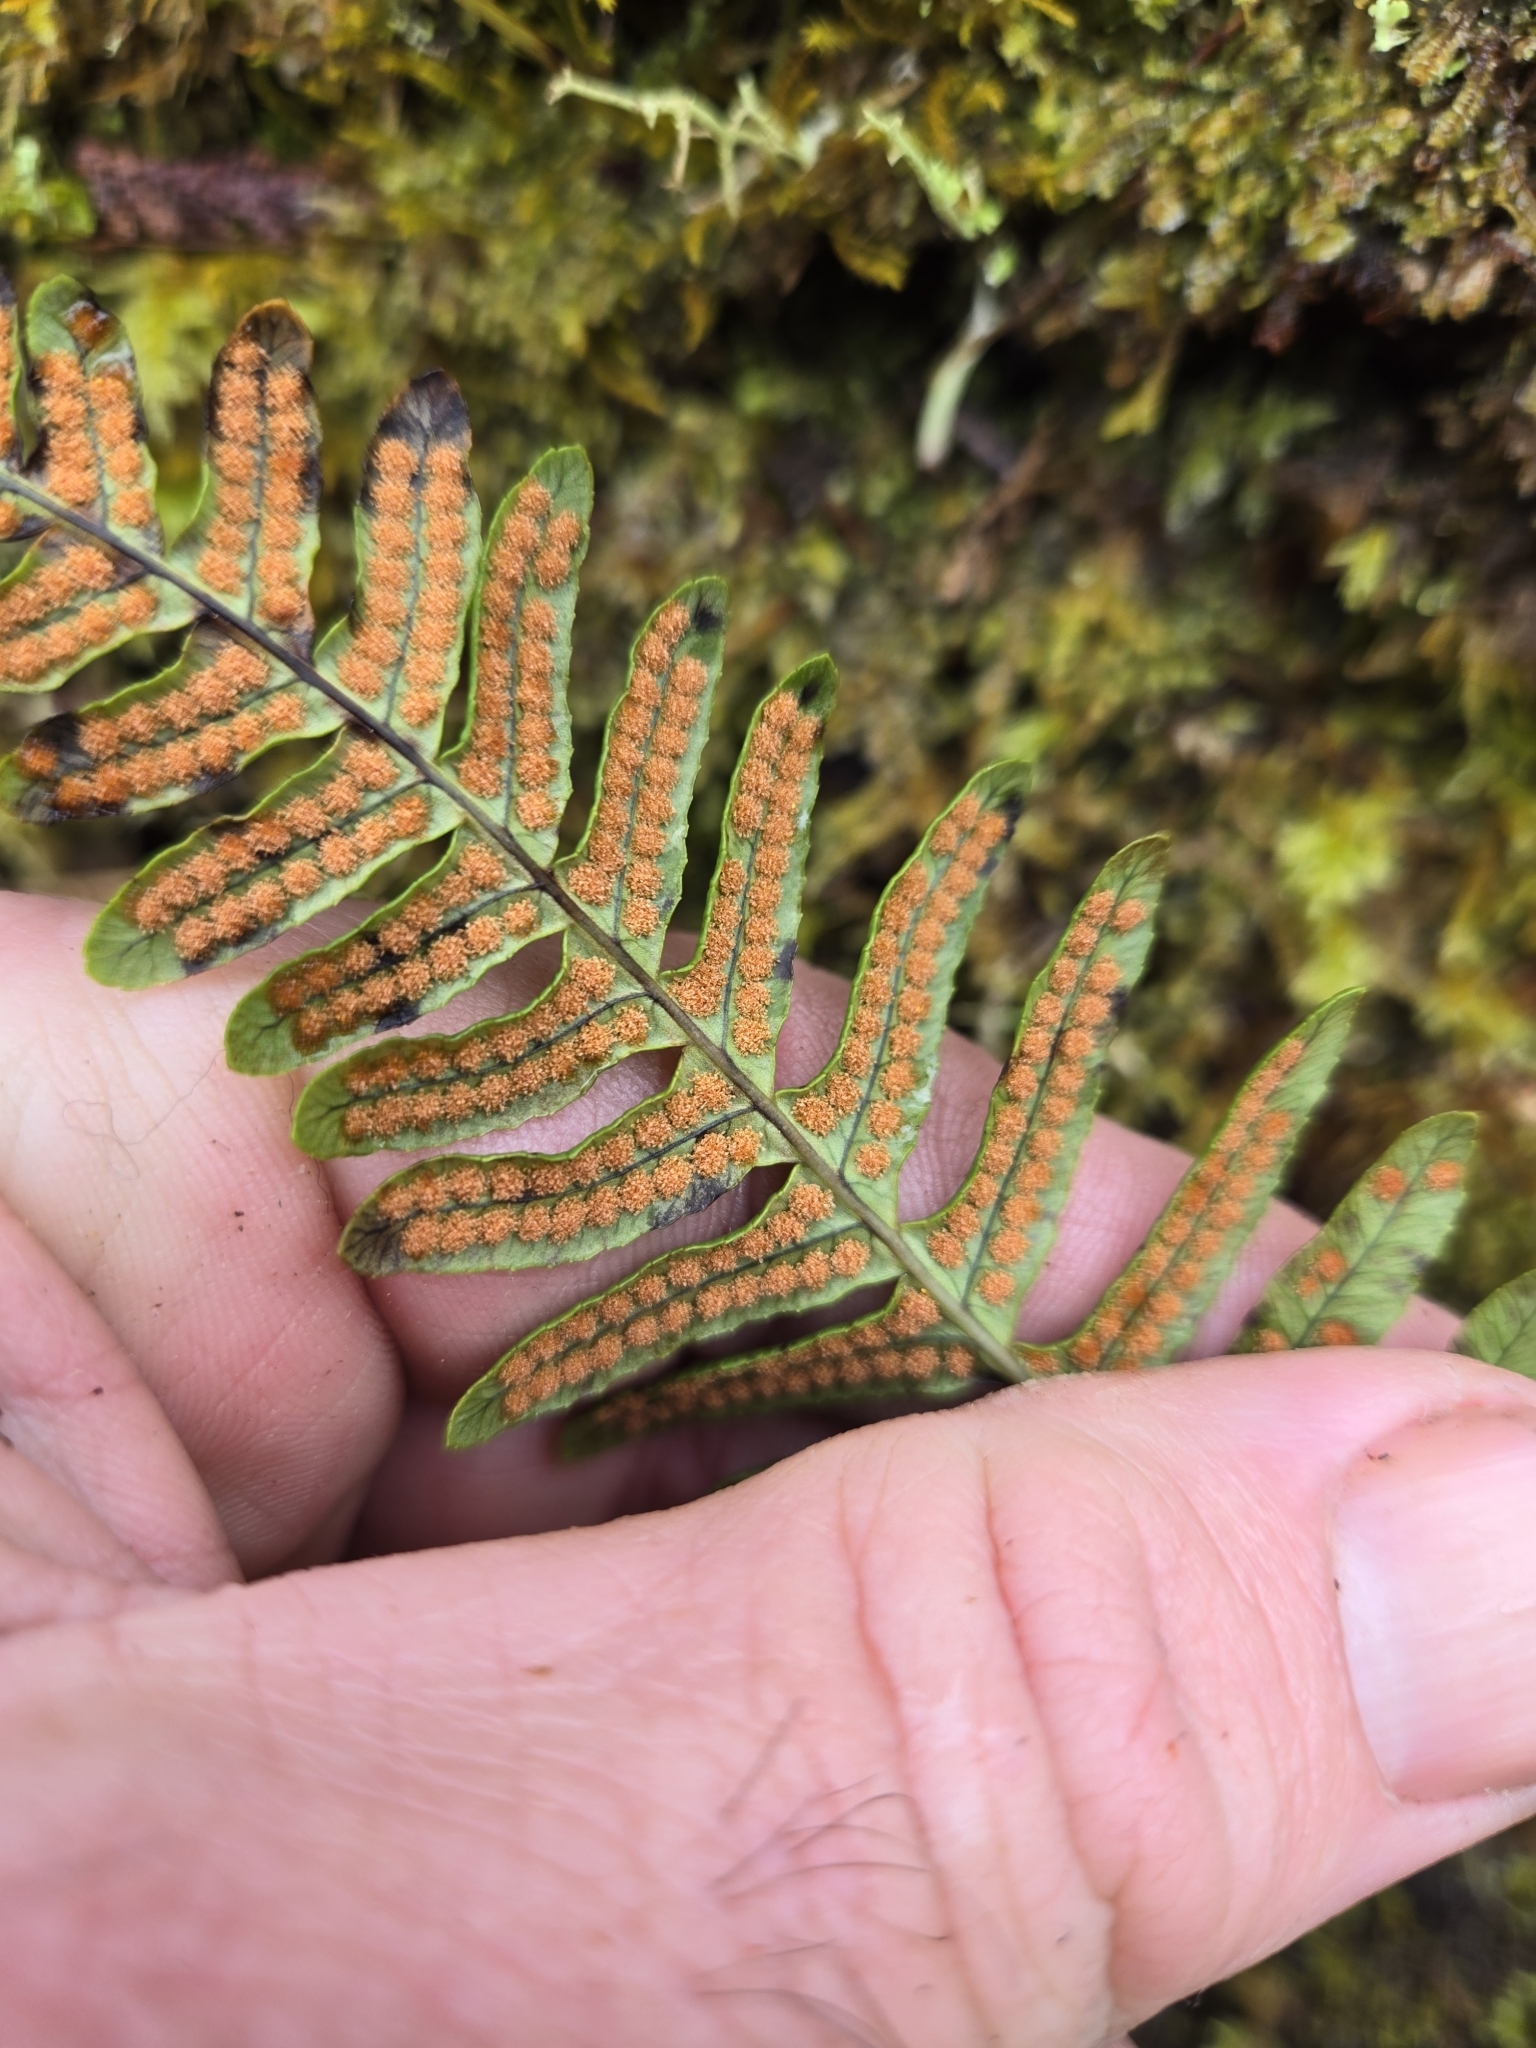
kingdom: Plantae
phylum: Tracheophyta
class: Polypodiopsida
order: Polypodiales
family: Polypodiaceae
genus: Polypodium
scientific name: Polypodium glycyrrhiza
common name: Licorice fern
